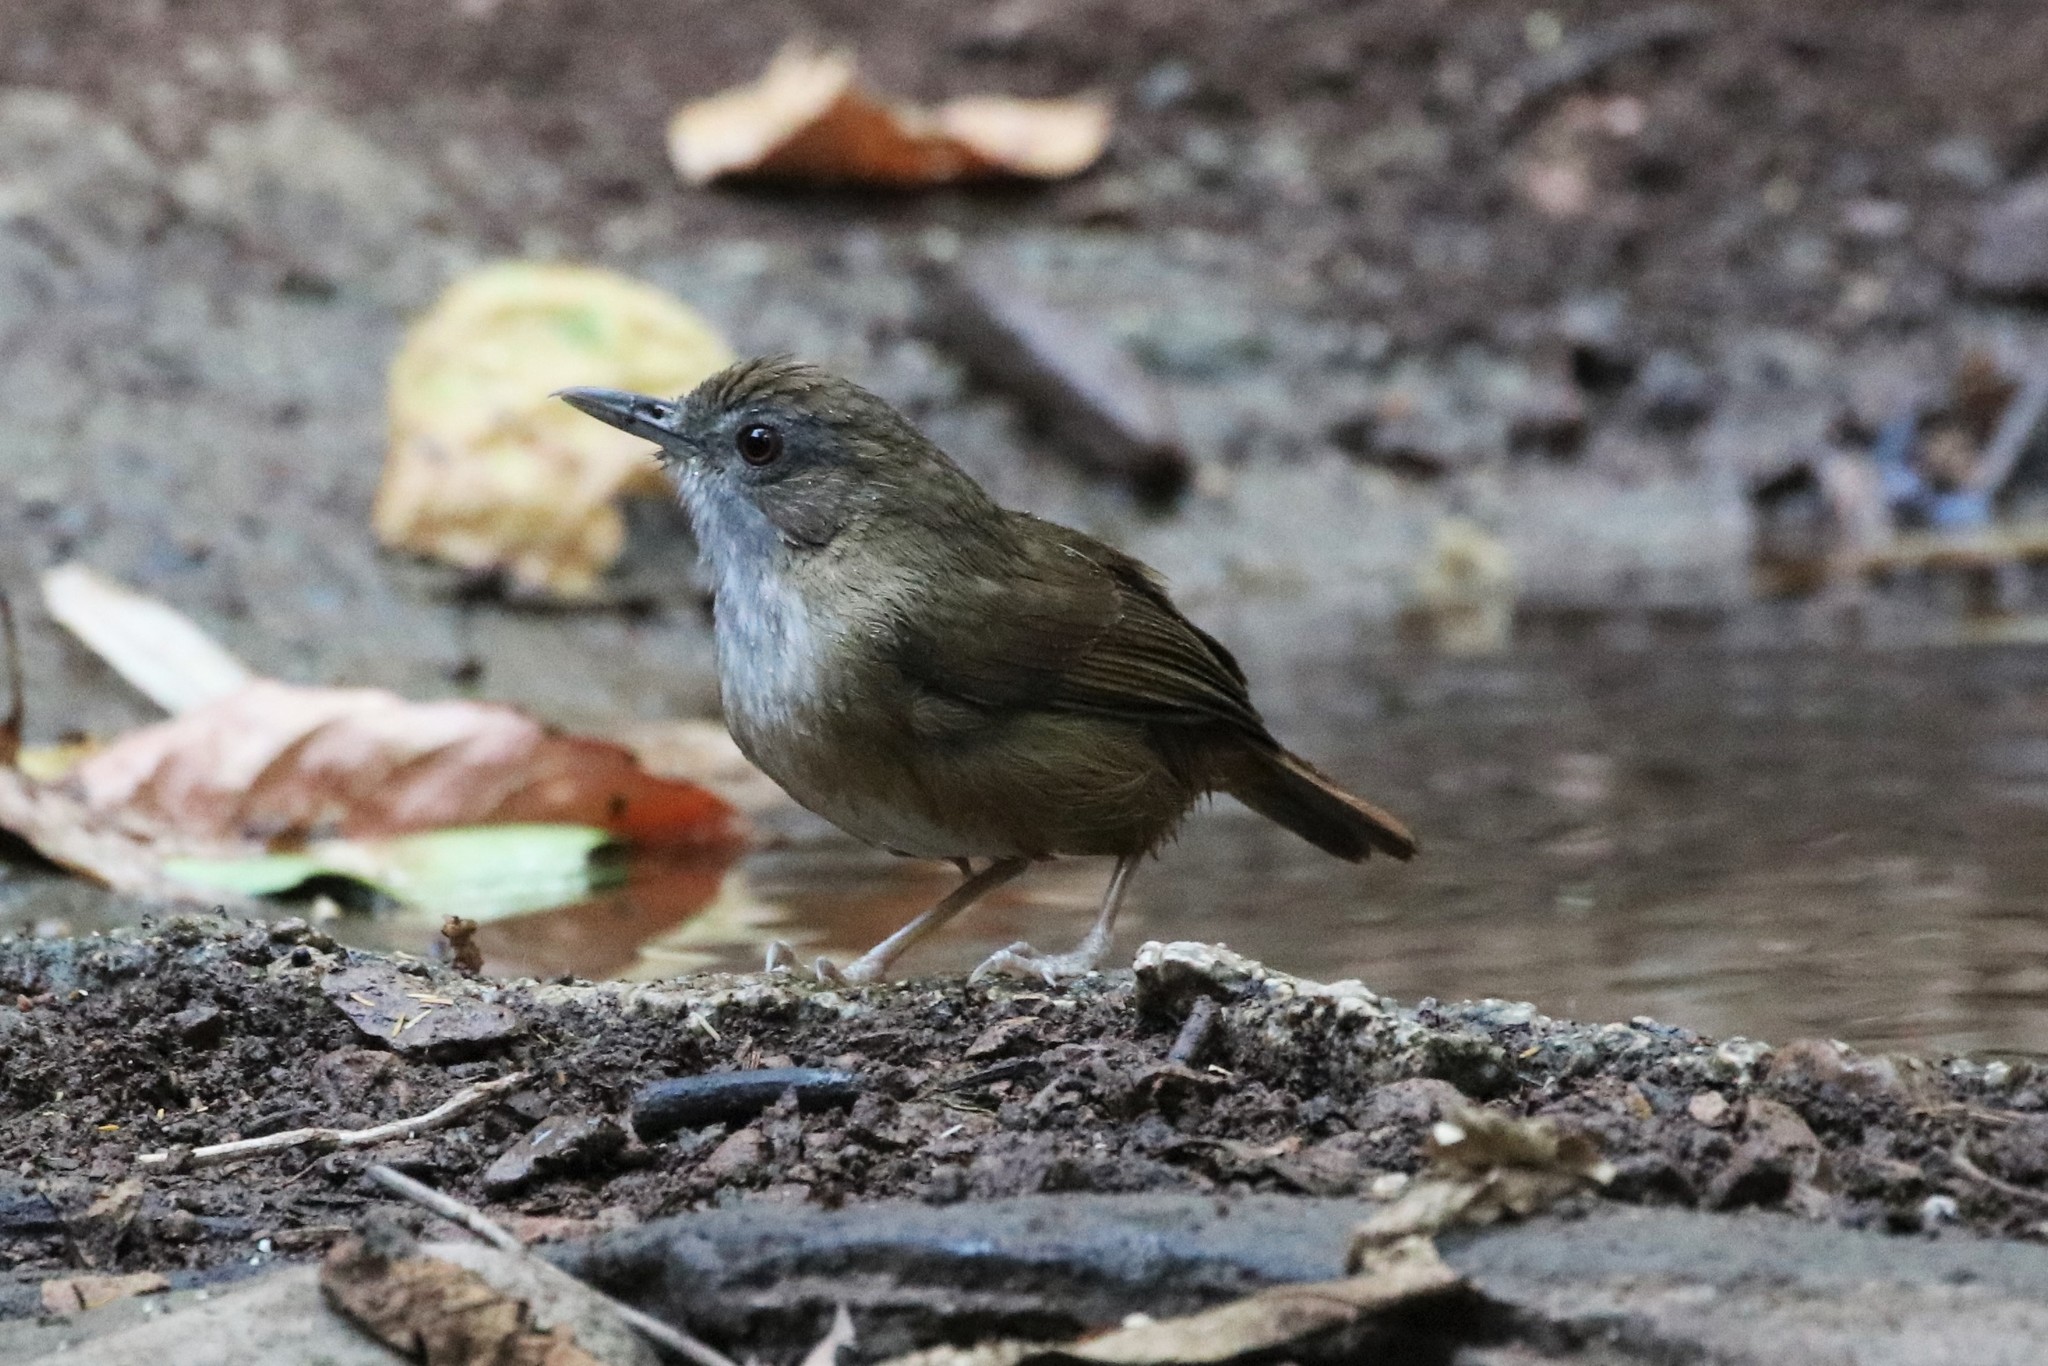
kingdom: Animalia
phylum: Chordata
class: Aves
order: Passeriformes
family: Pellorneidae
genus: Malacocincla
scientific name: Malacocincla abbotti
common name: Abbott's babbler
